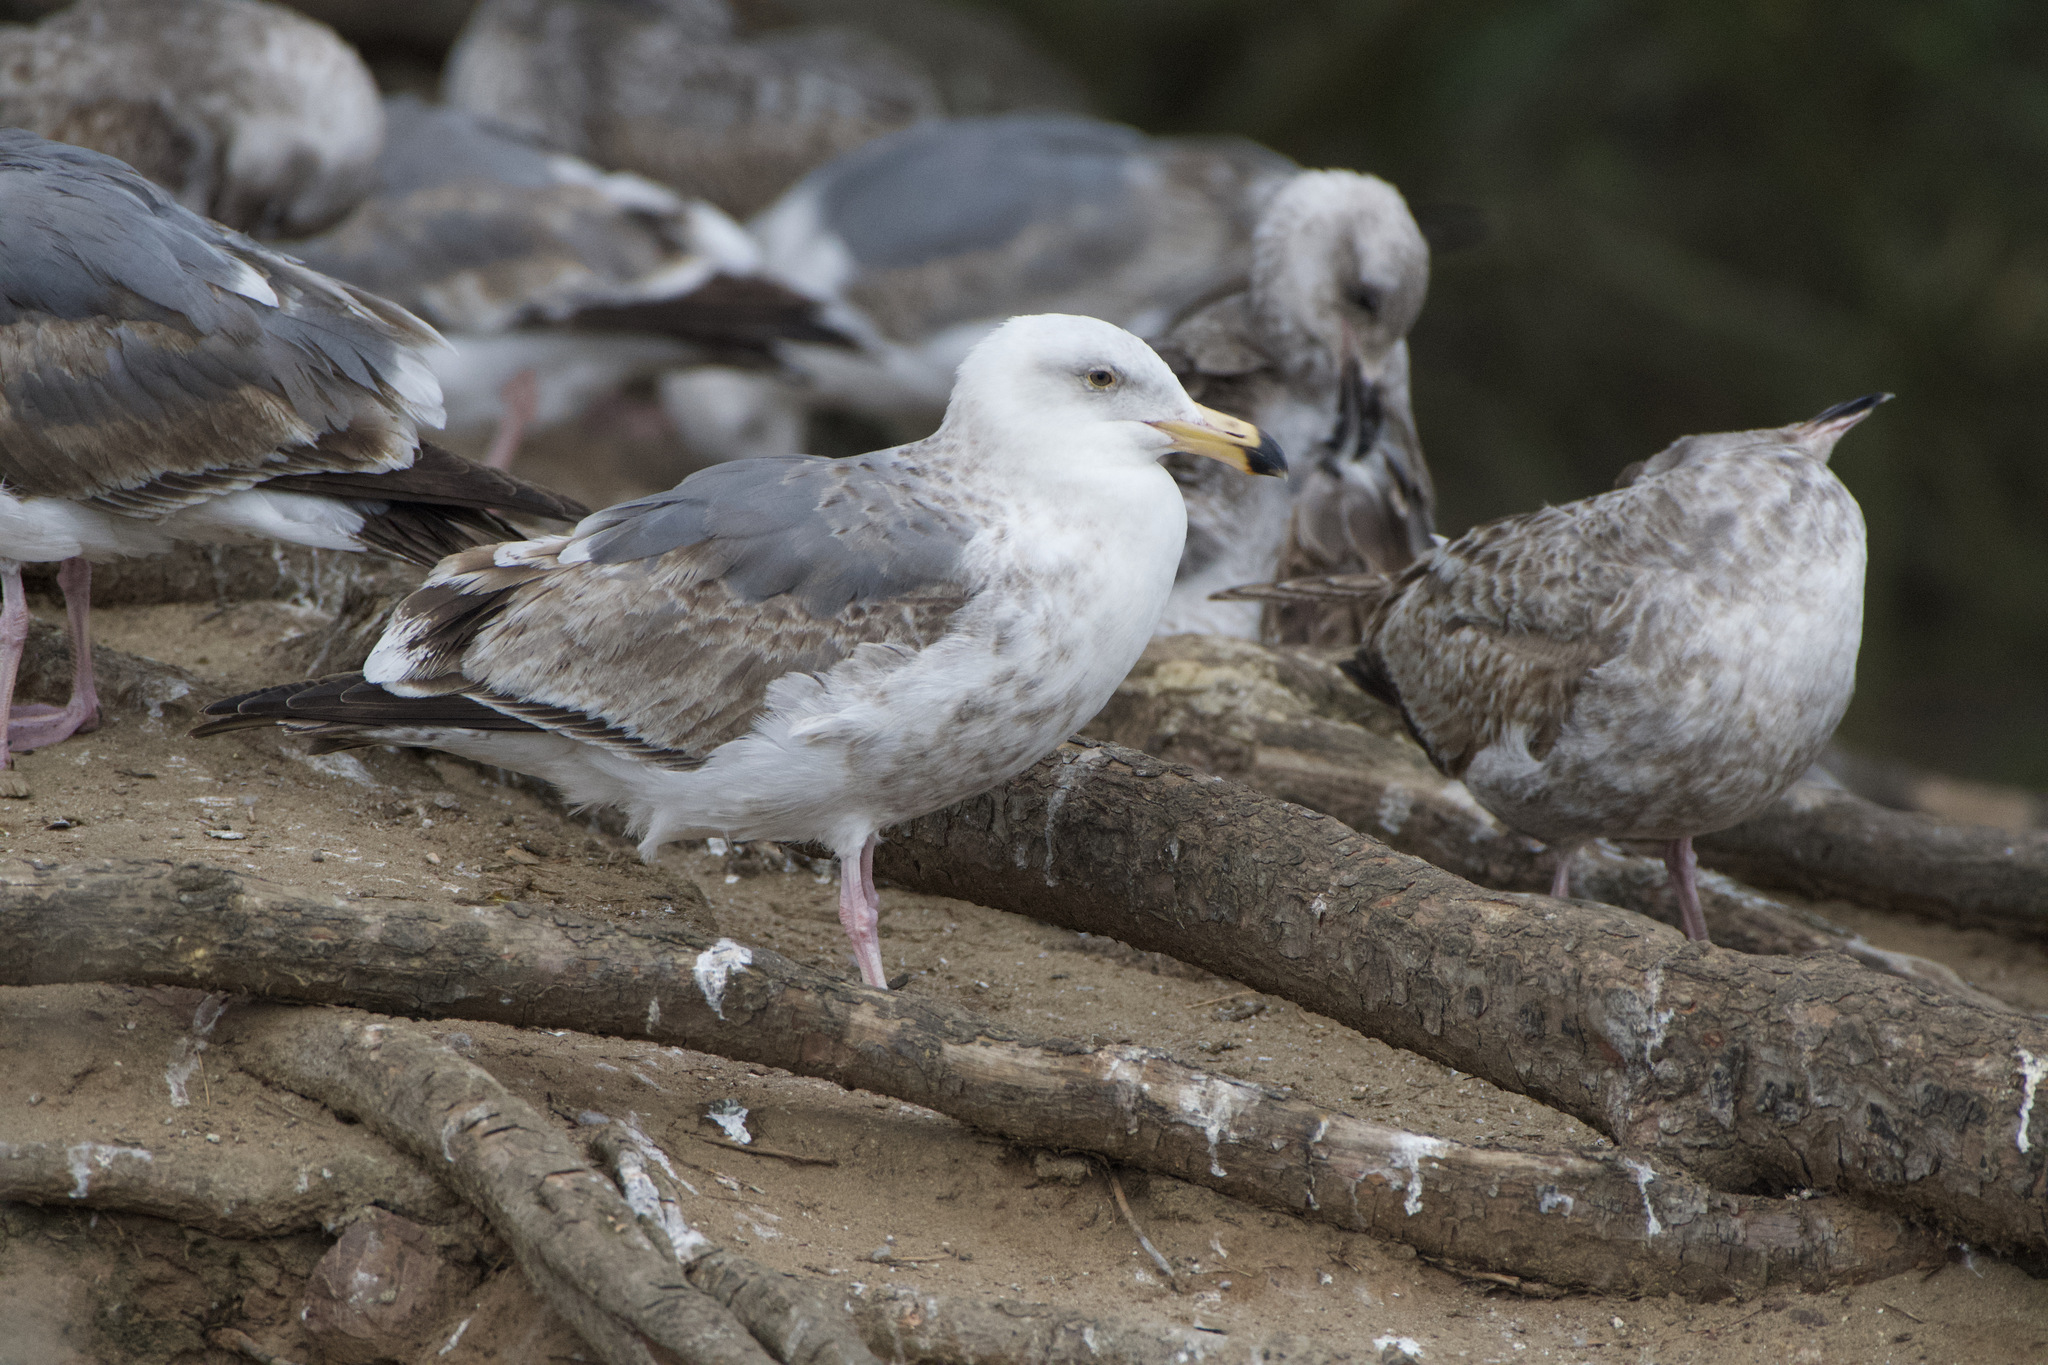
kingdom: Animalia
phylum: Chordata
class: Aves
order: Charadriiformes
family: Laridae
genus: Larus
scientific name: Larus occidentalis
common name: Western gull
